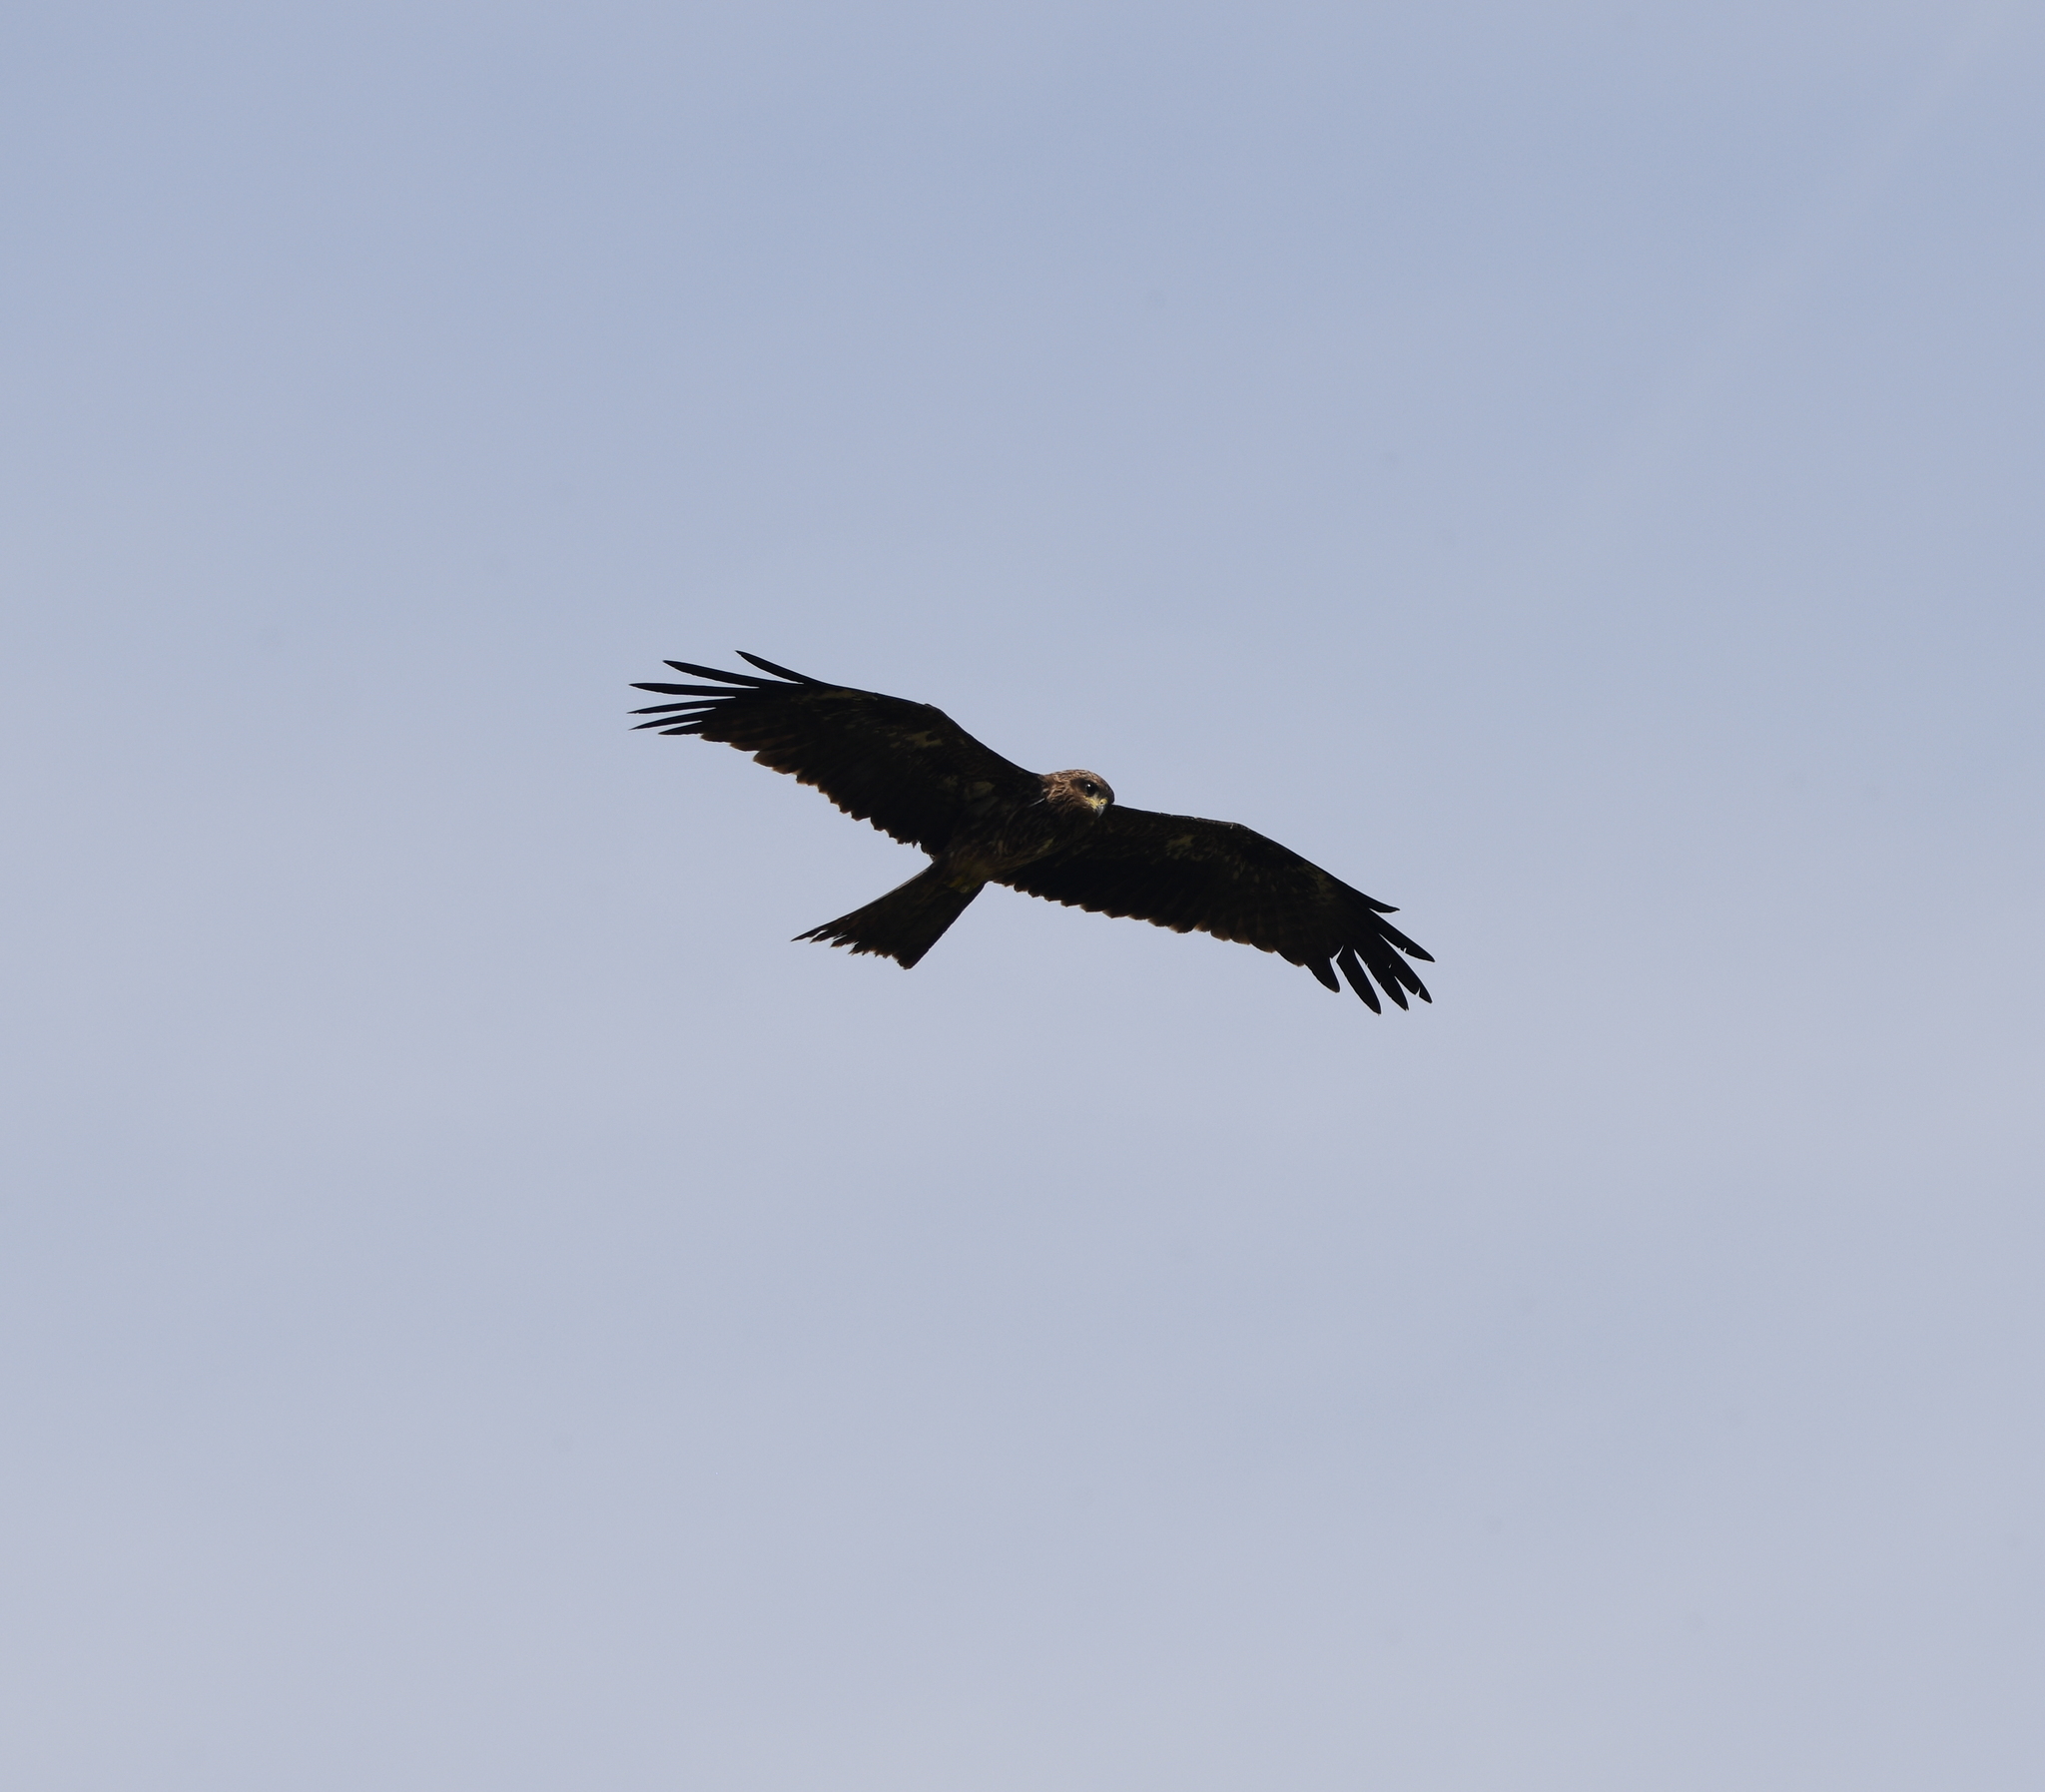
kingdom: Animalia
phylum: Chordata
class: Aves
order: Accipitriformes
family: Accipitridae
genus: Milvus
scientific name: Milvus migrans
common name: Black kite
